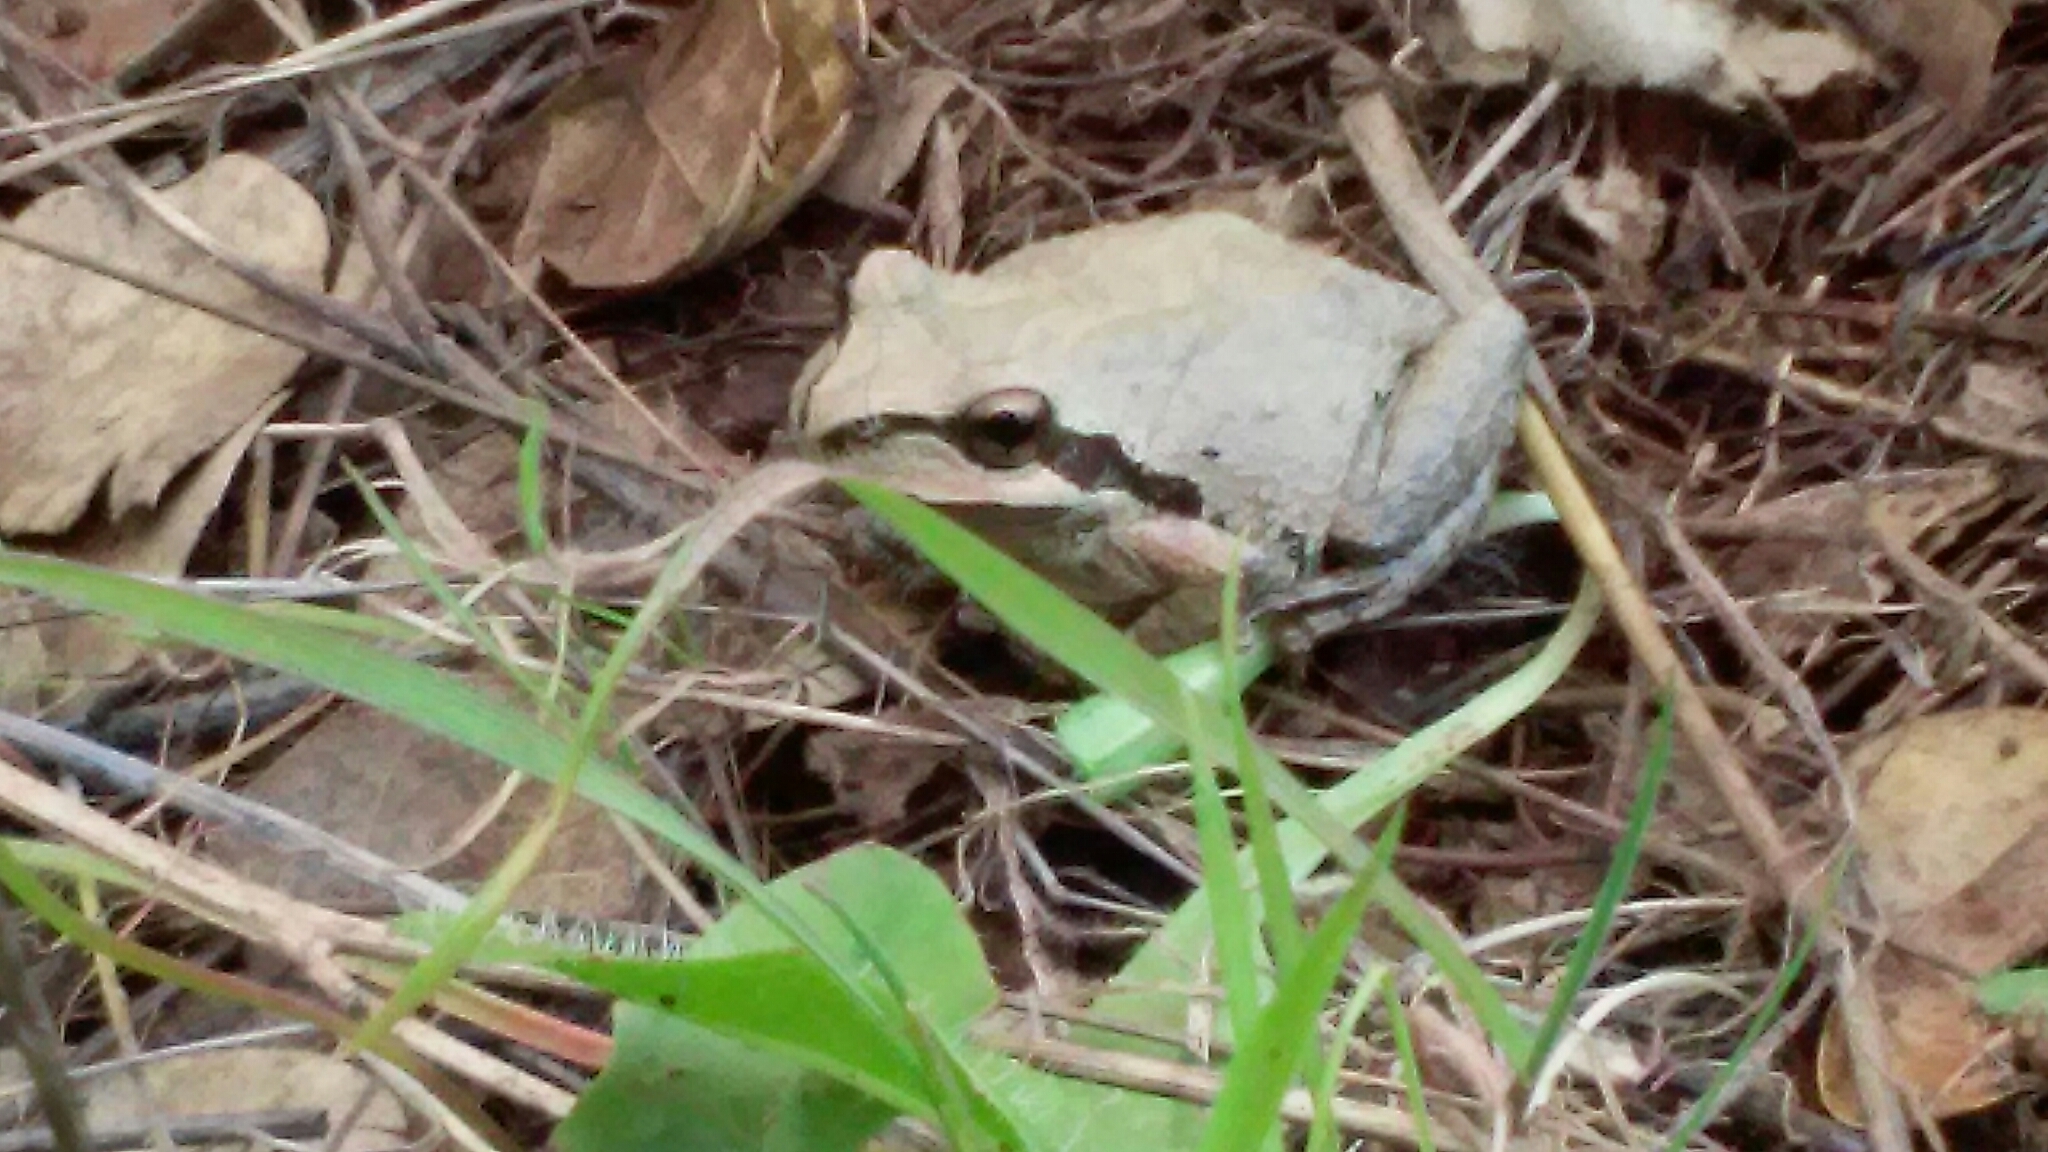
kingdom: Animalia
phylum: Chordata
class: Amphibia
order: Anura
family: Hylidae
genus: Pseudacris
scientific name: Pseudacris regilla
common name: Pacific chorus frog
